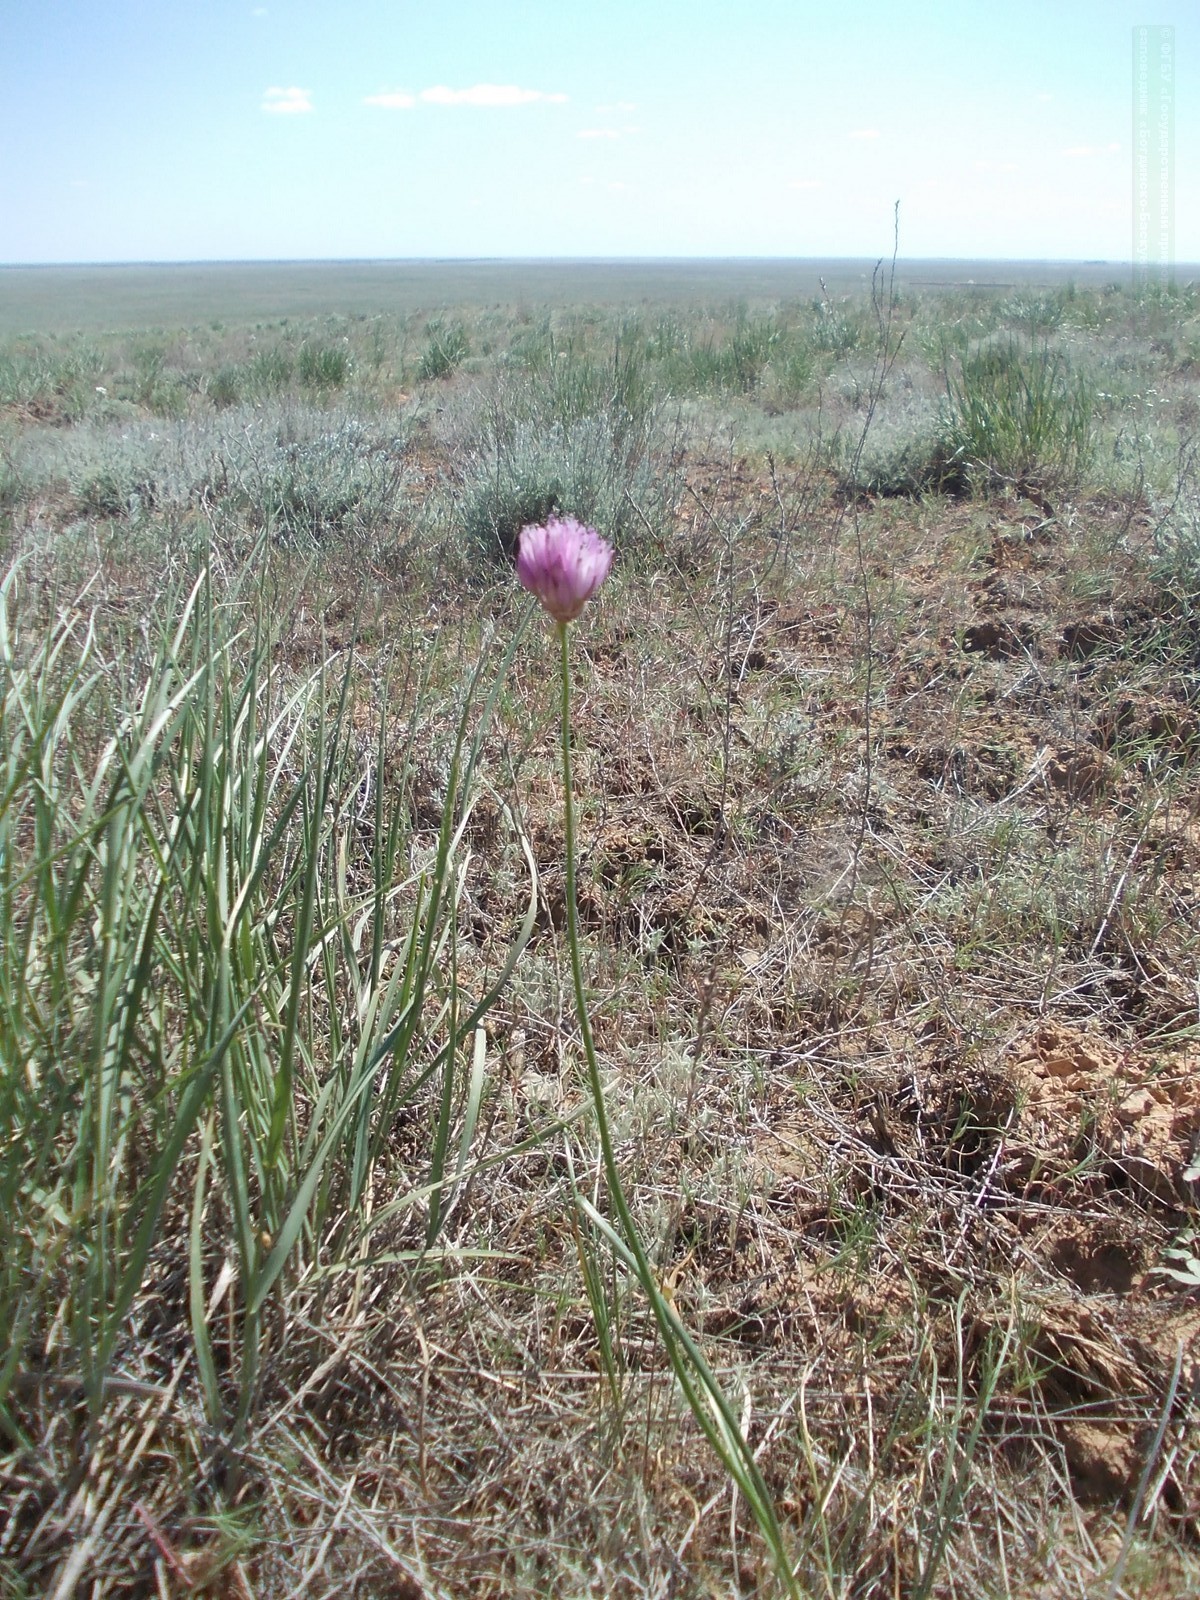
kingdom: Plantae
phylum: Tracheophyta
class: Liliopsida
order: Asparagales
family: Amaryllidaceae
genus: Allium
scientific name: Allium inderiense
